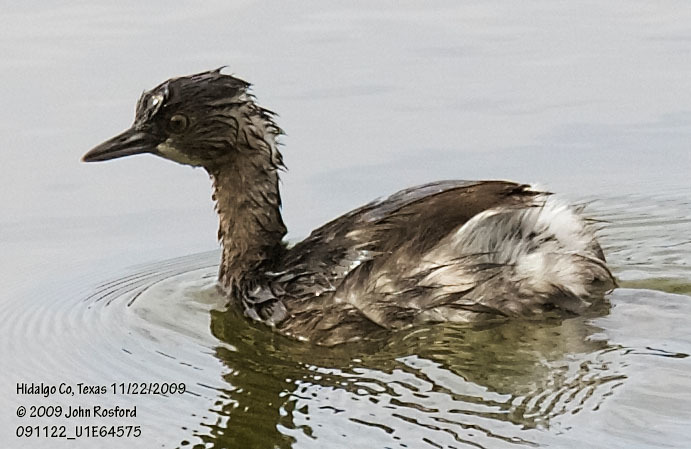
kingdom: Animalia
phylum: Chordata
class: Aves
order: Podicipediformes
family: Podicipedidae
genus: Tachybaptus
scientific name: Tachybaptus dominicus
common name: Least grebe
